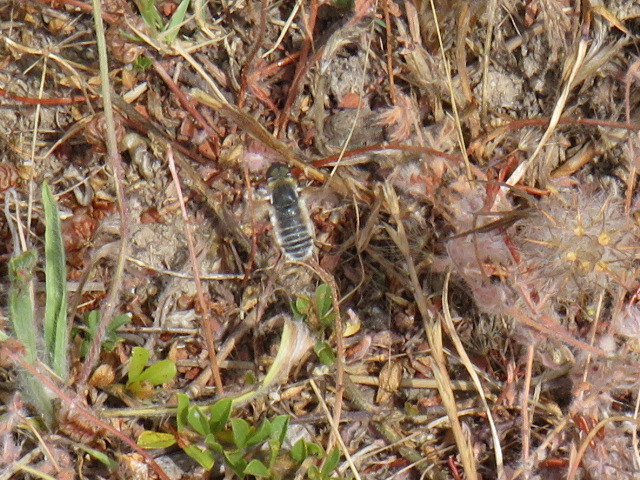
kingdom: Animalia
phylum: Arthropoda
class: Insecta
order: Diptera
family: Bombyliidae
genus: Villa
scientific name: Villa sexfasciata
